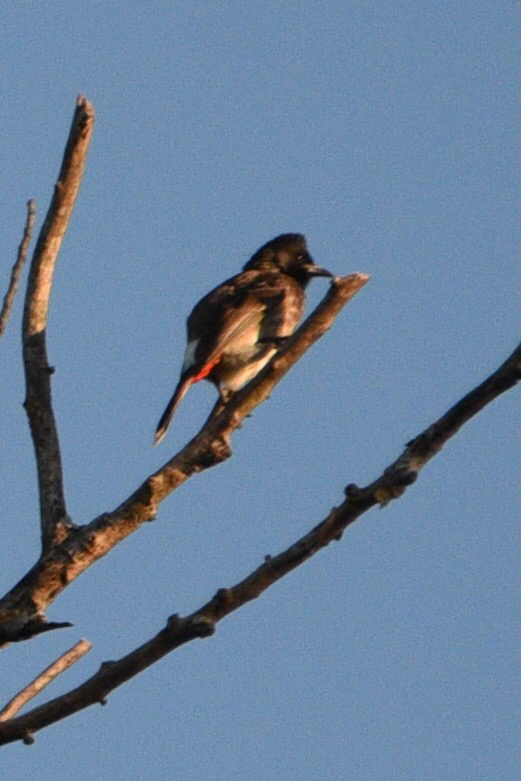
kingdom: Animalia
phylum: Chordata
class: Aves
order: Passeriformes
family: Pycnonotidae
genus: Pycnonotus
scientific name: Pycnonotus cafer
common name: Red-vented bulbul
